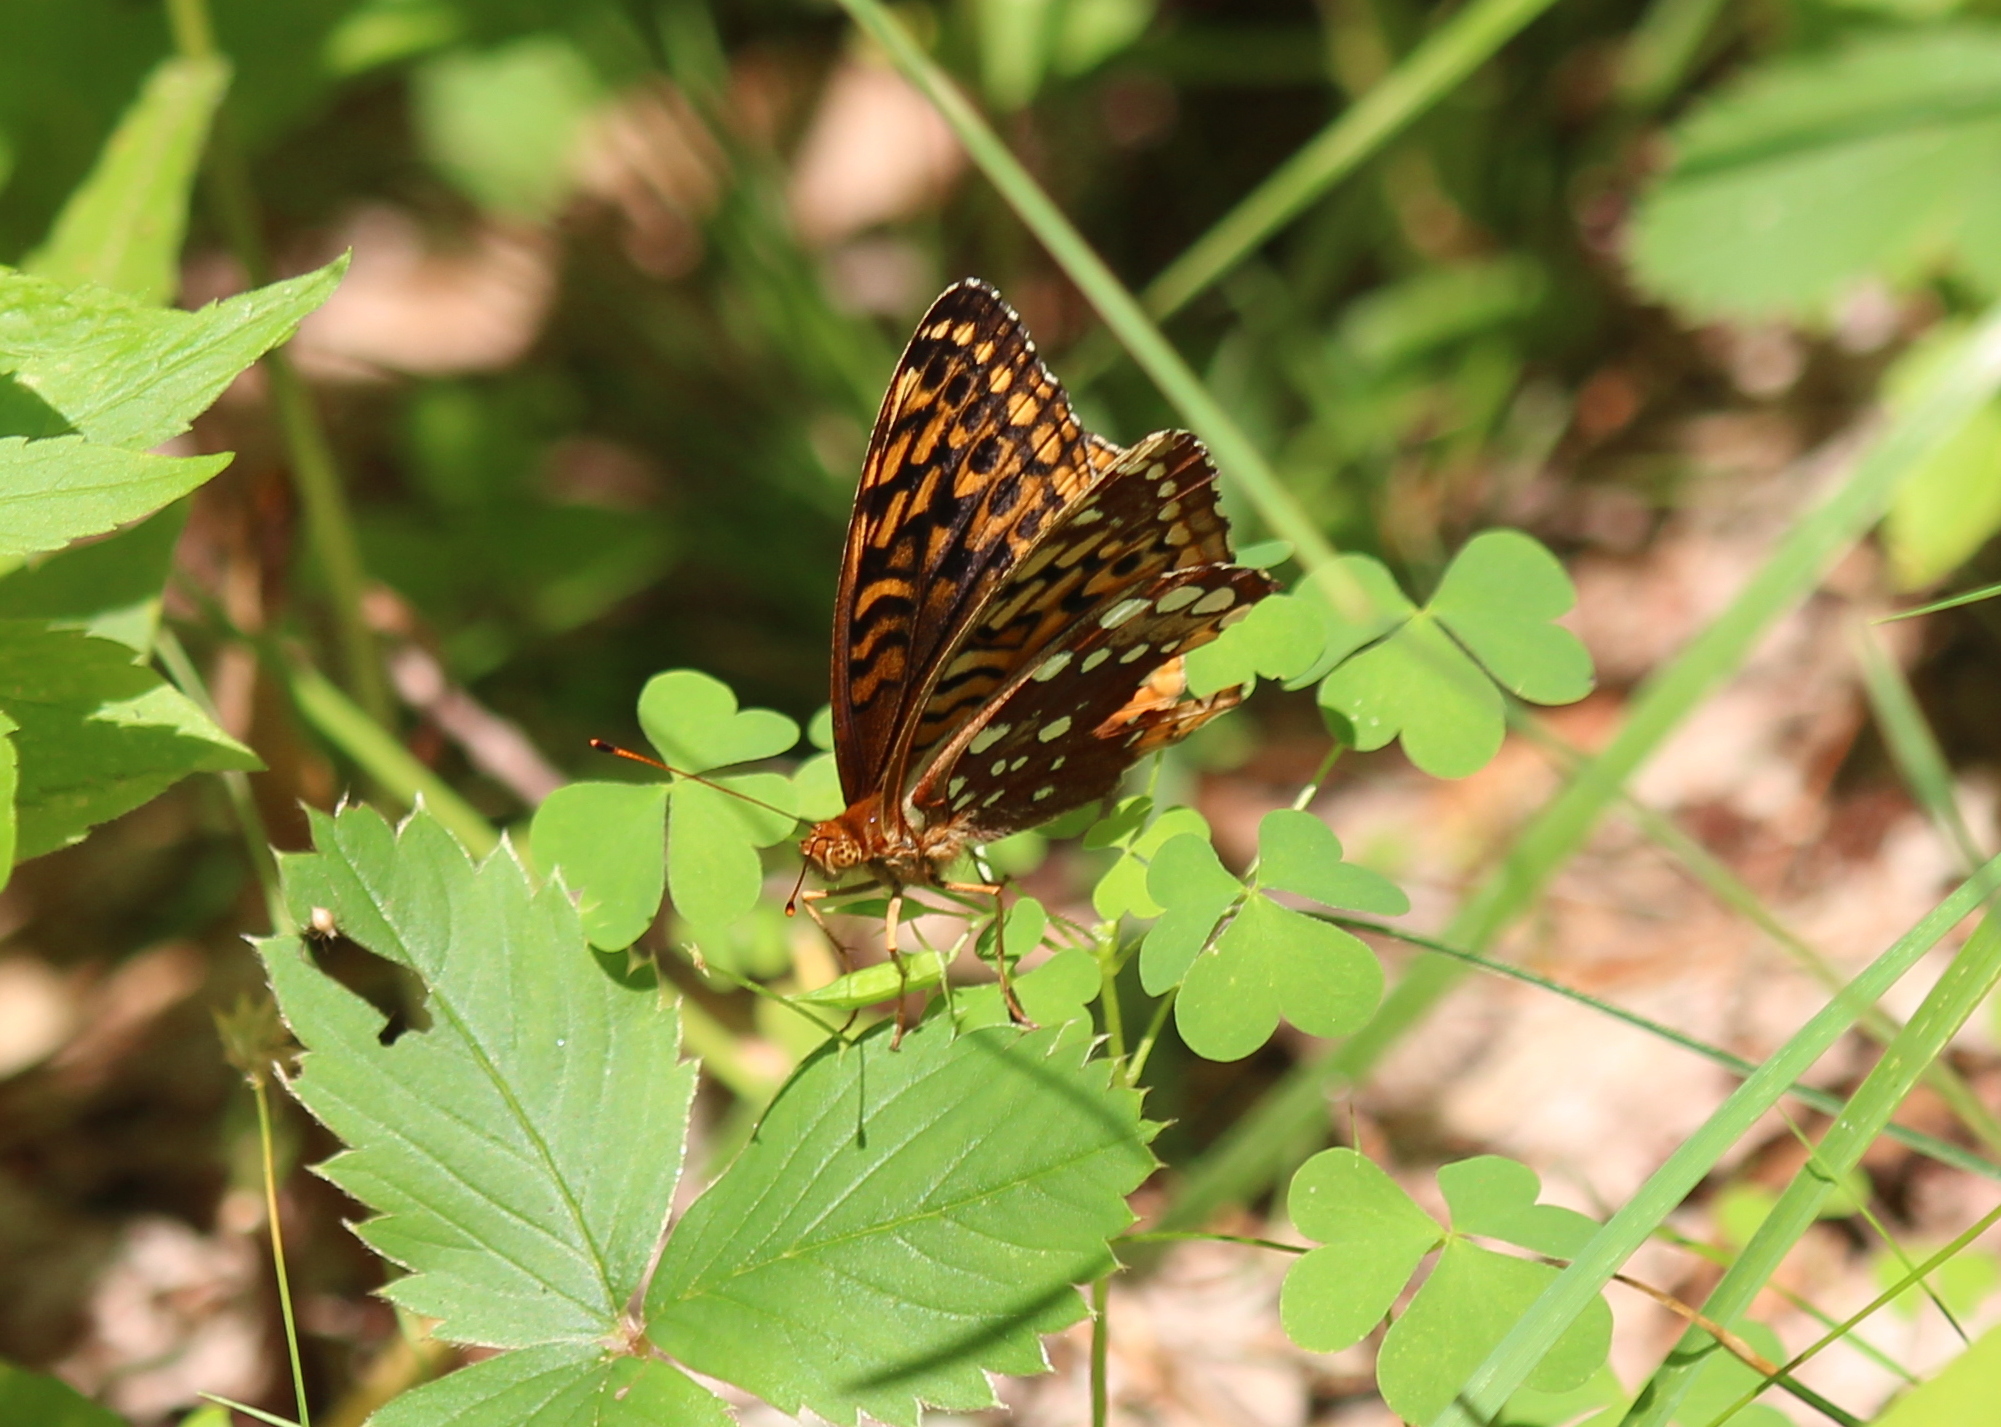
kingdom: Animalia
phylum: Arthropoda
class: Insecta
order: Lepidoptera
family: Nymphalidae
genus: Speyeria
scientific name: Speyeria cybele
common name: Great spangled fritillary
